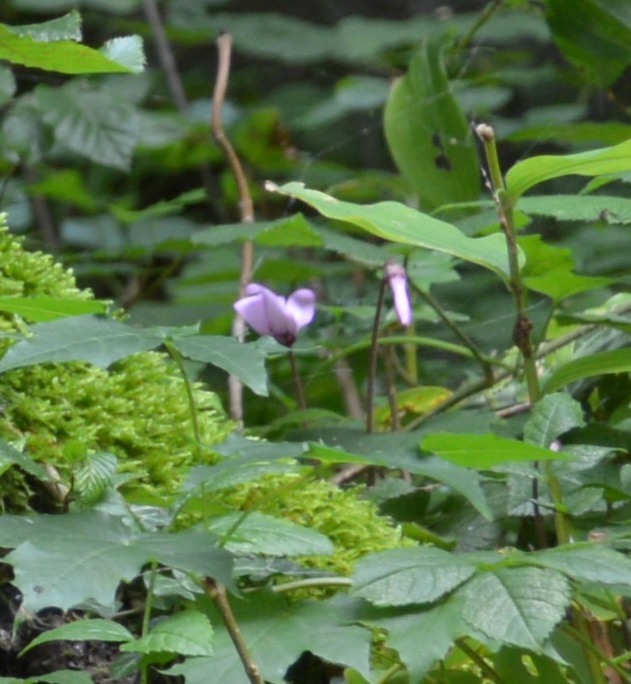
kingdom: Plantae
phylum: Tracheophyta
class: Magnoliopsida
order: Ericales
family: Primulaceae
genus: Cyclamen
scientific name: Cyclamen purpurascens
